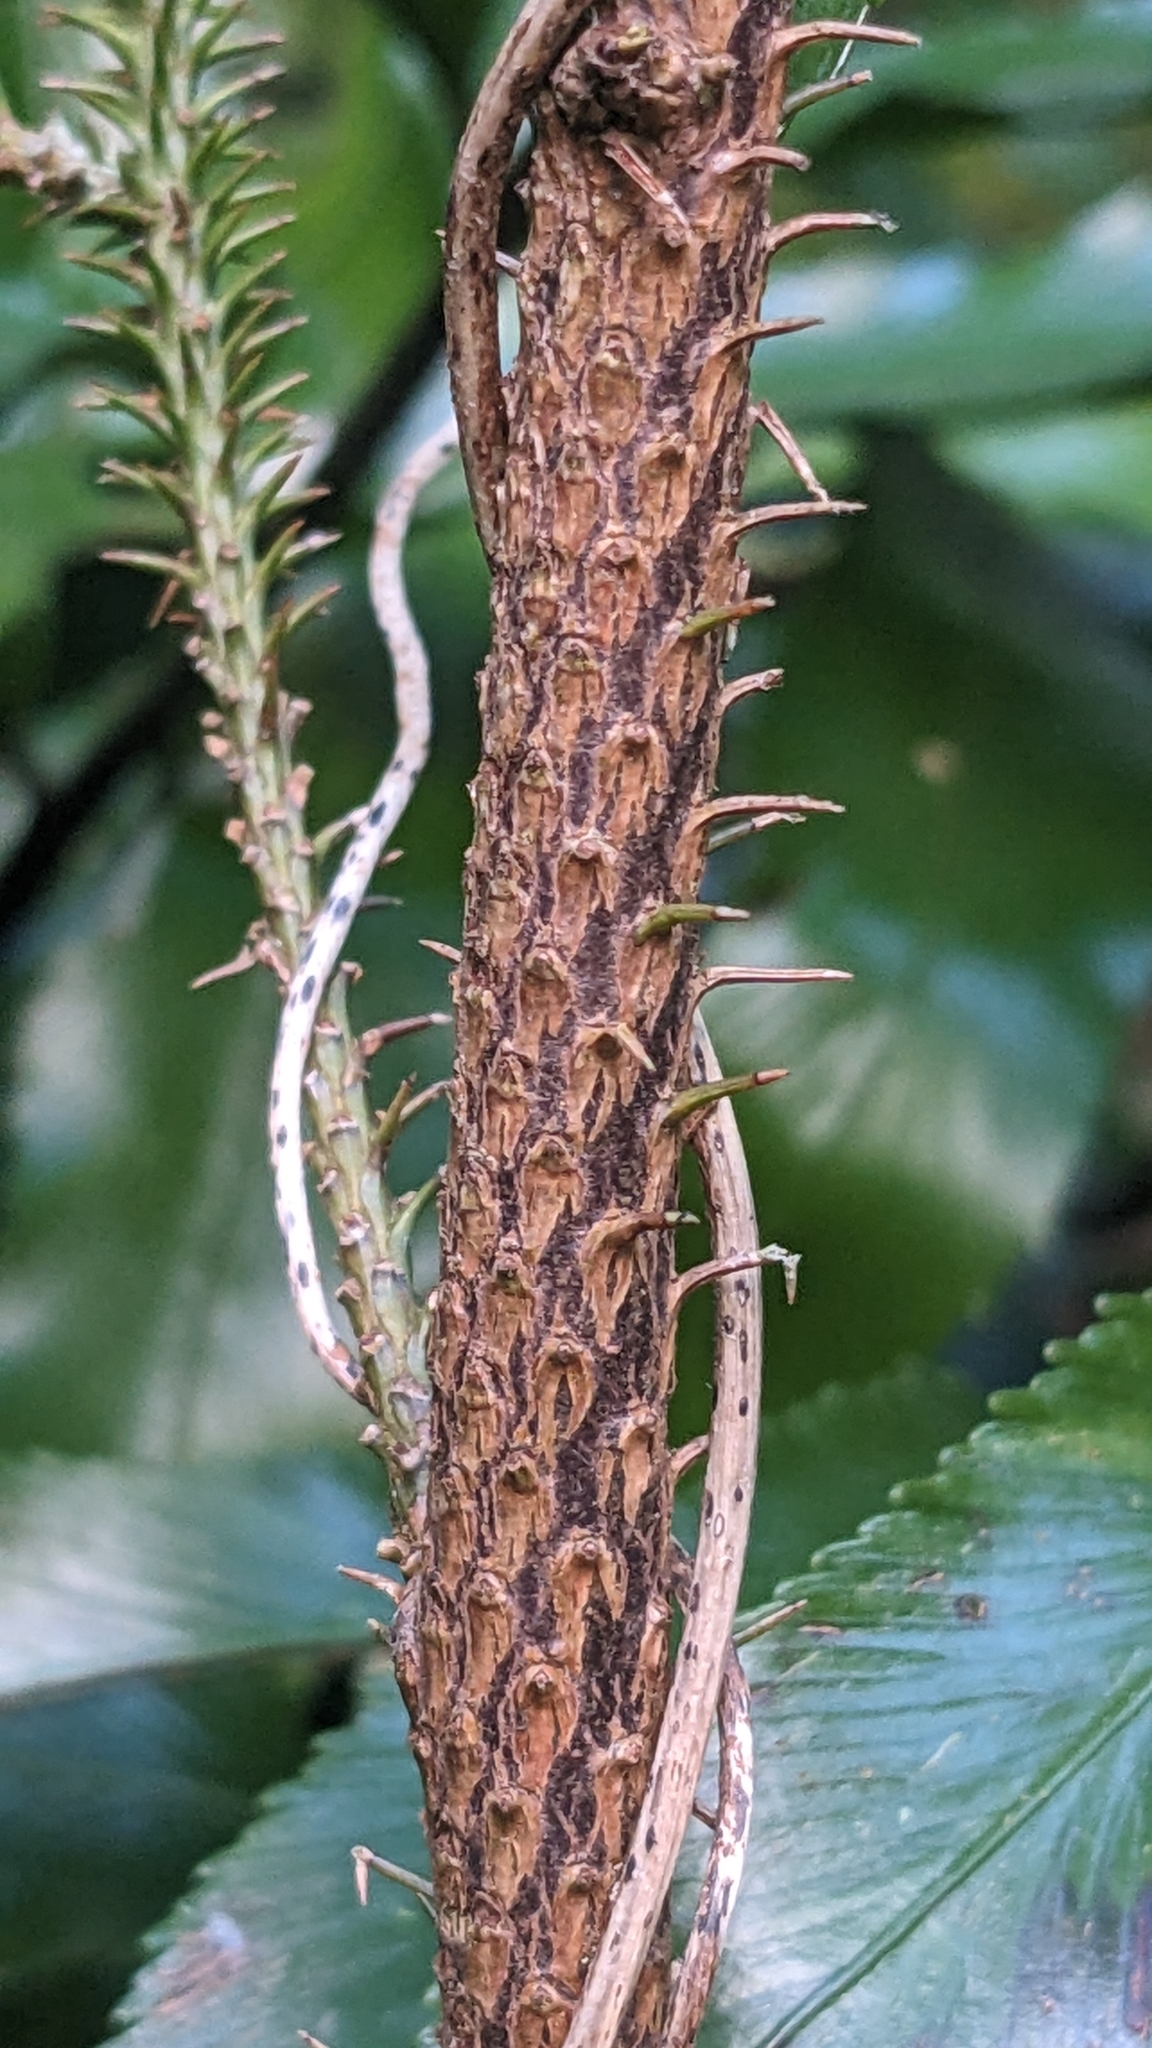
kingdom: Plantae
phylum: Tracheophyta
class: Pinopsida
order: Pinales
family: Podocarpaceae
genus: Dacrydium
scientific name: Dacrydium cupressinum
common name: Red pine
